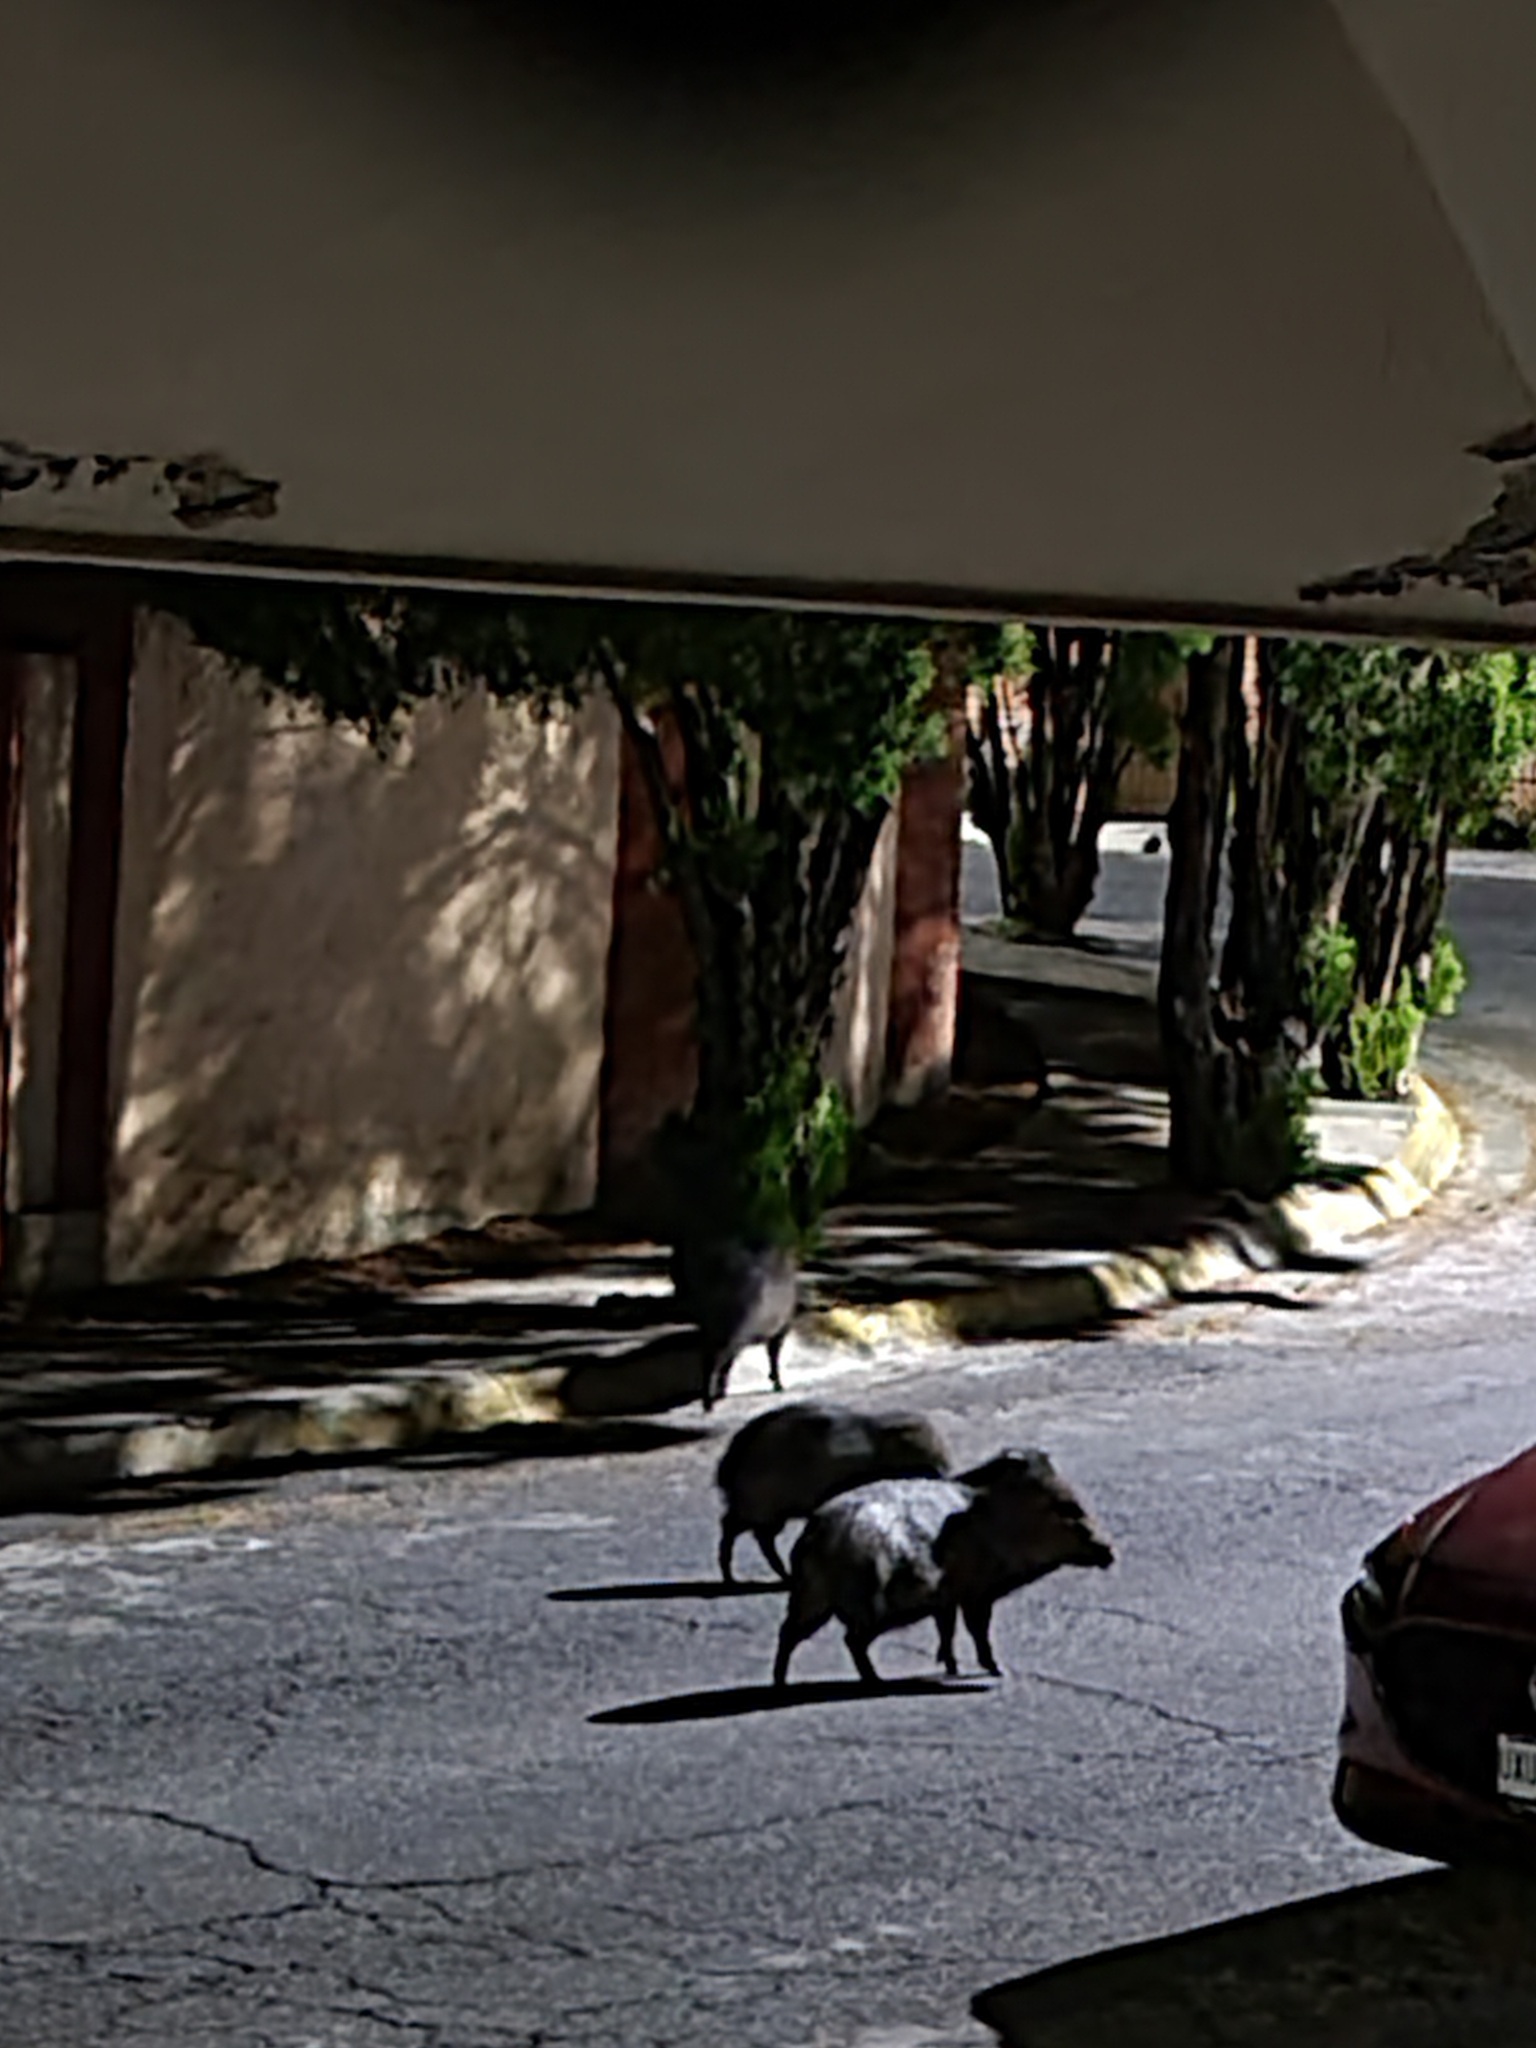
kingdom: Animalia
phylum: Chordata
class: Mammalia
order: Artiodactyla
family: Tayassuidae
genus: Pecari
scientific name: Pecari tajacu
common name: Collared peccary
